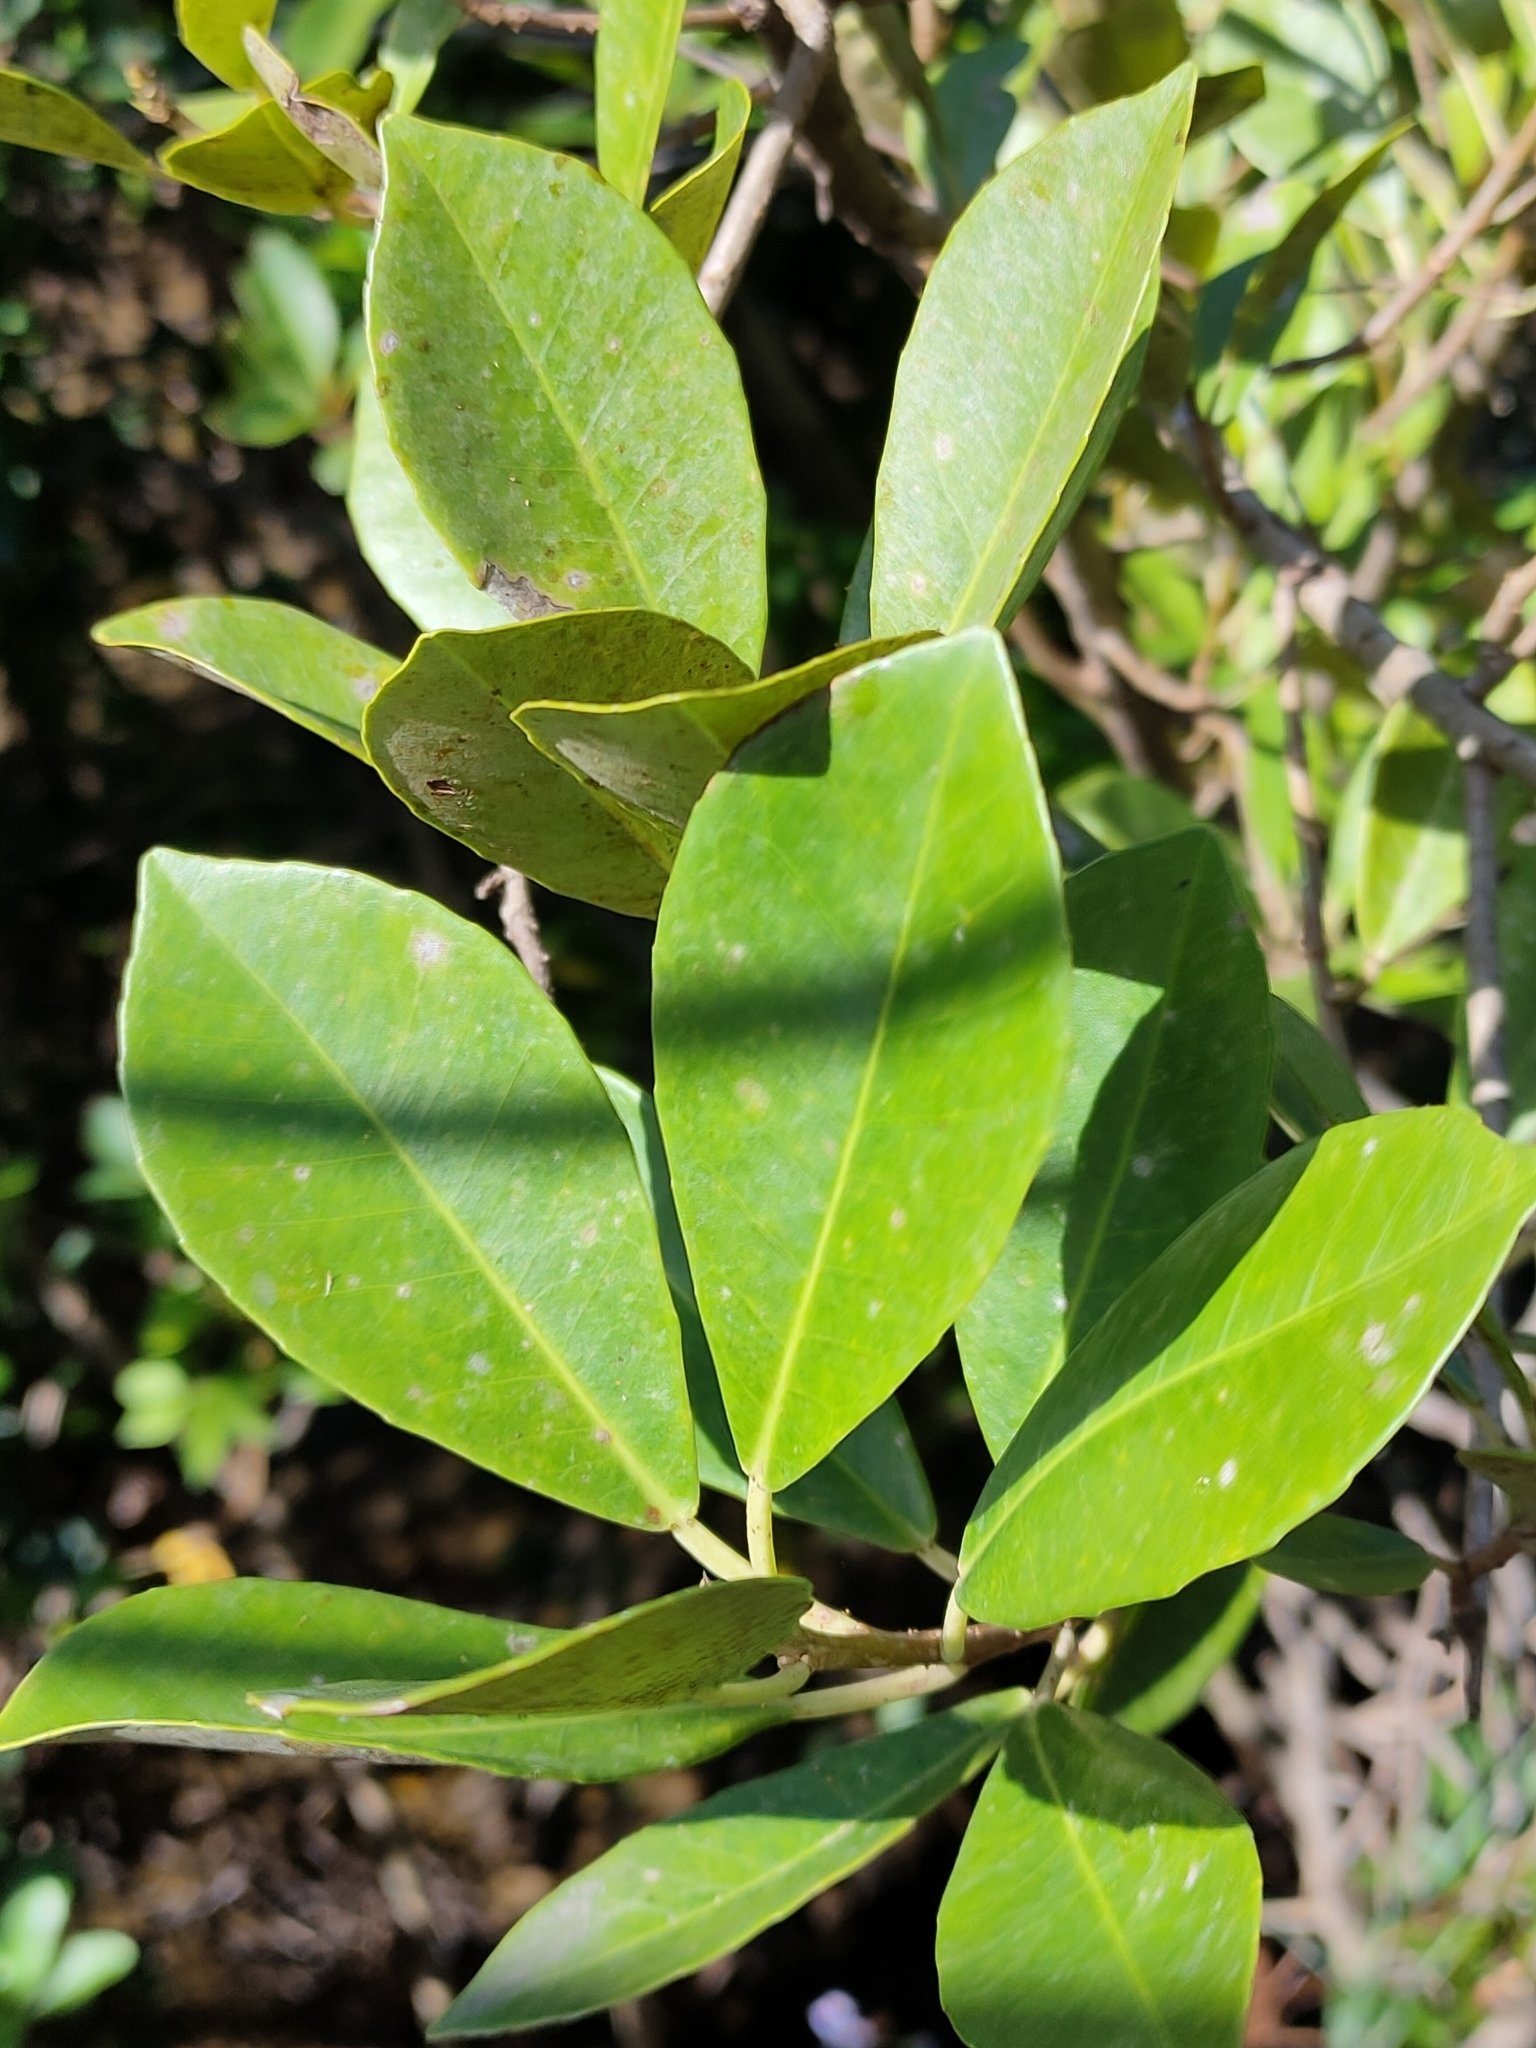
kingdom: Plantae
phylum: Tracheophyta
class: Magnoliopsida
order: Lamiales
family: Acanthaceae
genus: Avicennia
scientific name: Avicennia marina
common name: Gray mangrove
